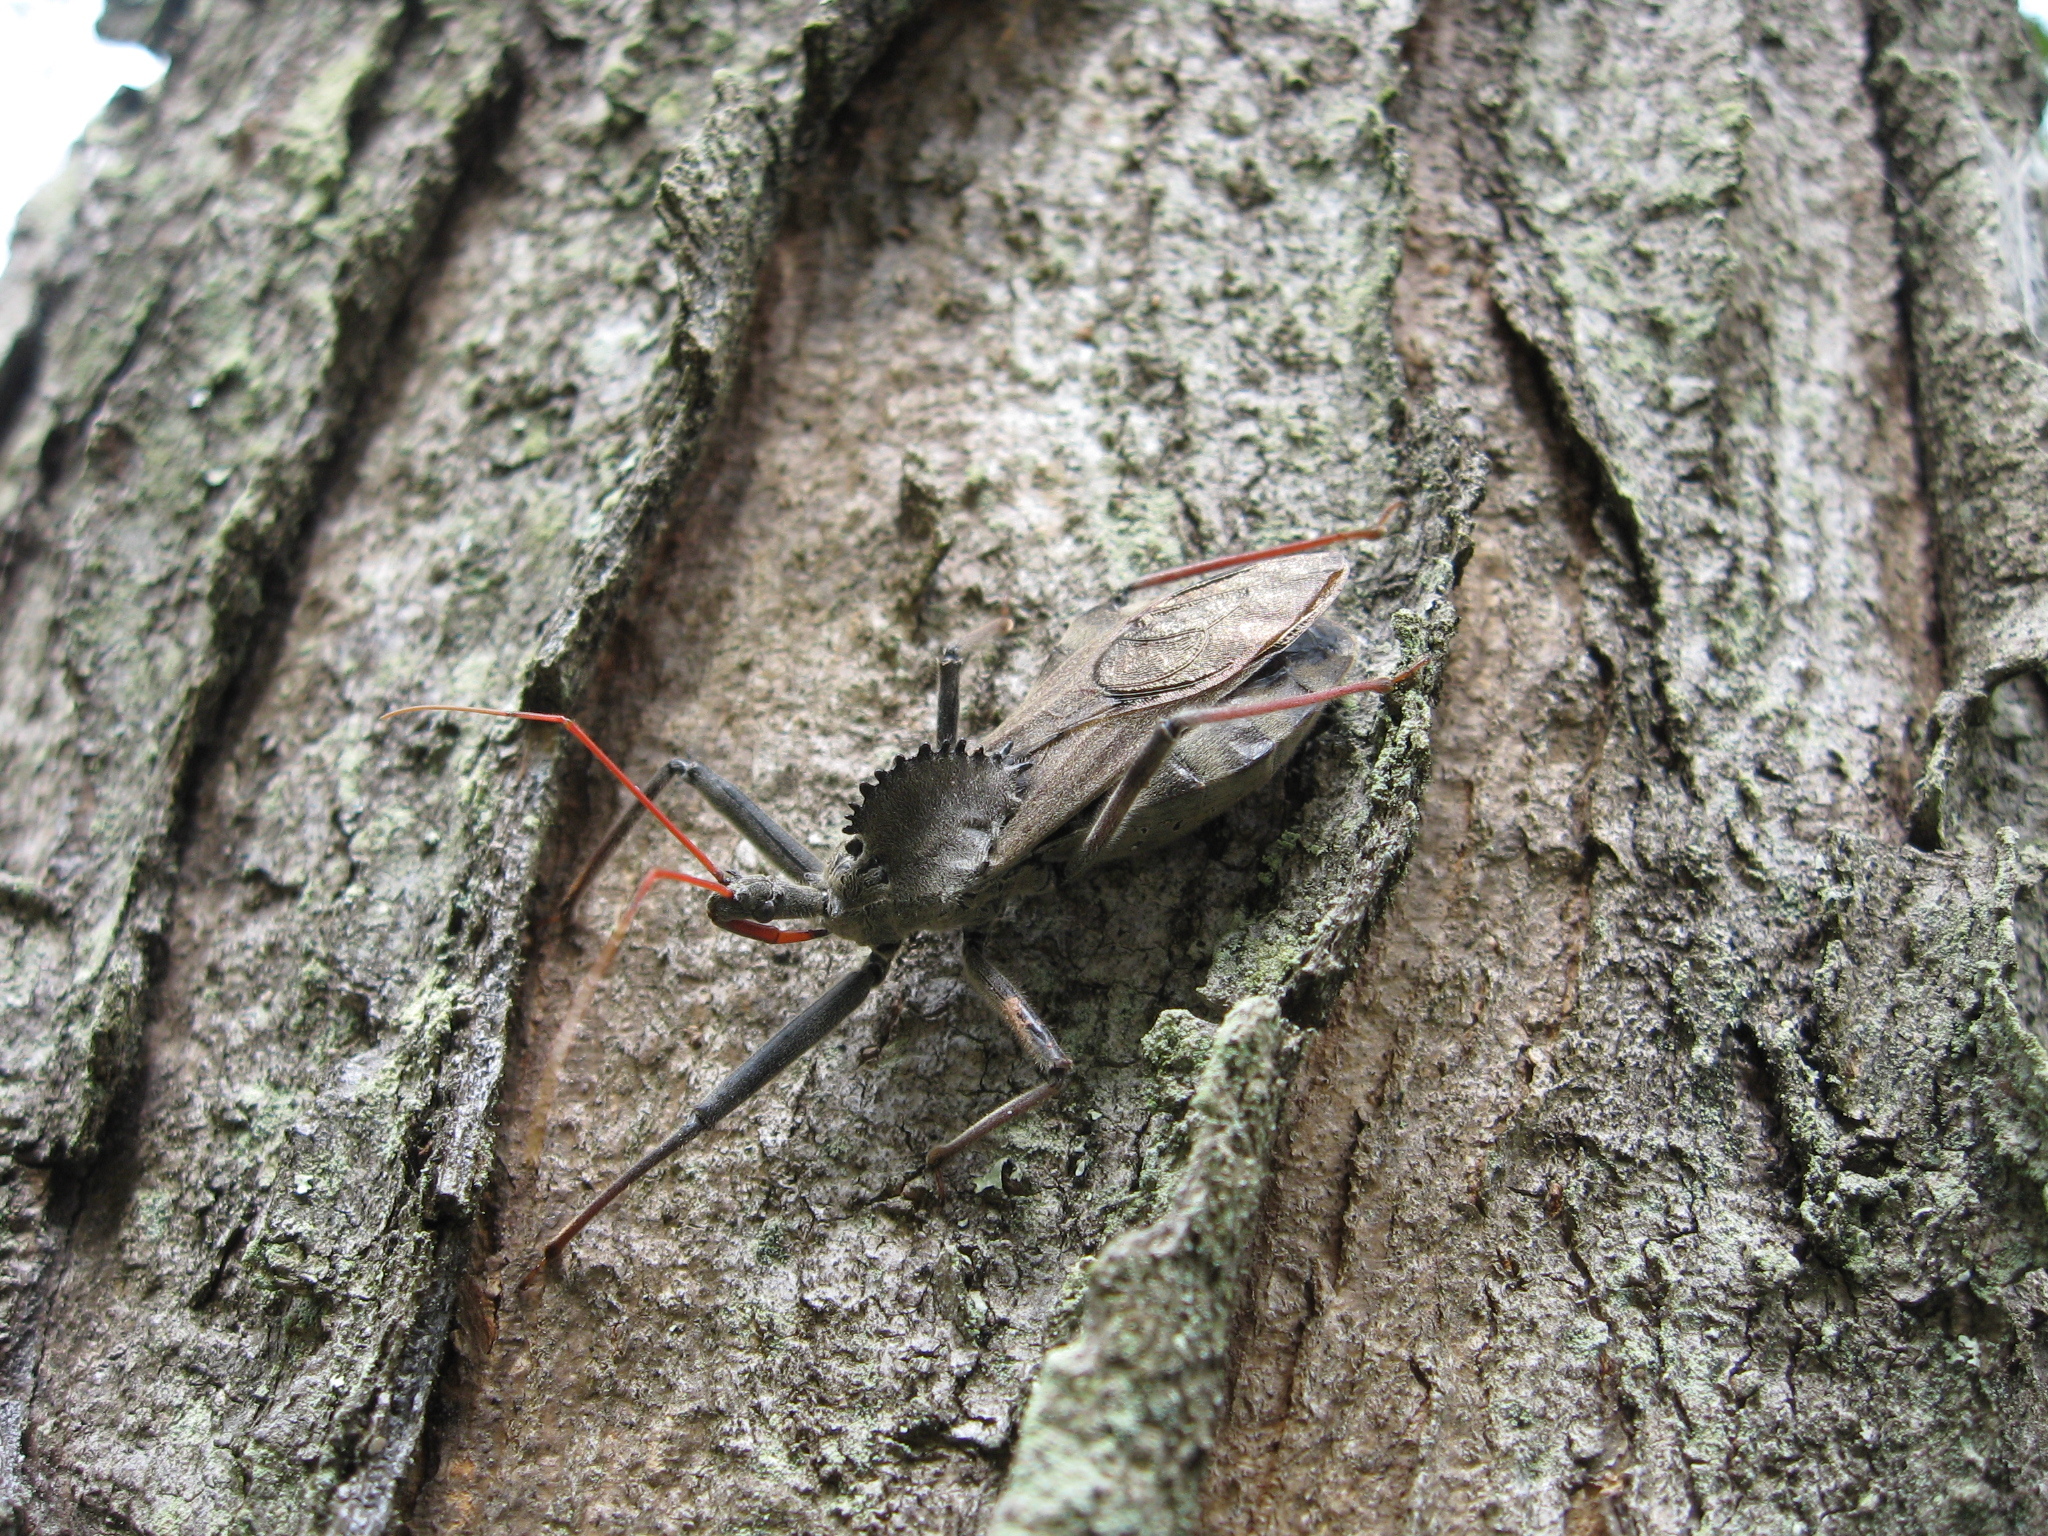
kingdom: Animalia
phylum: Arthropoda
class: Insecta
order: Hemiptera
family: Reduviidae
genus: Arilus
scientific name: Arilus cristatus
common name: North american wheel bug
